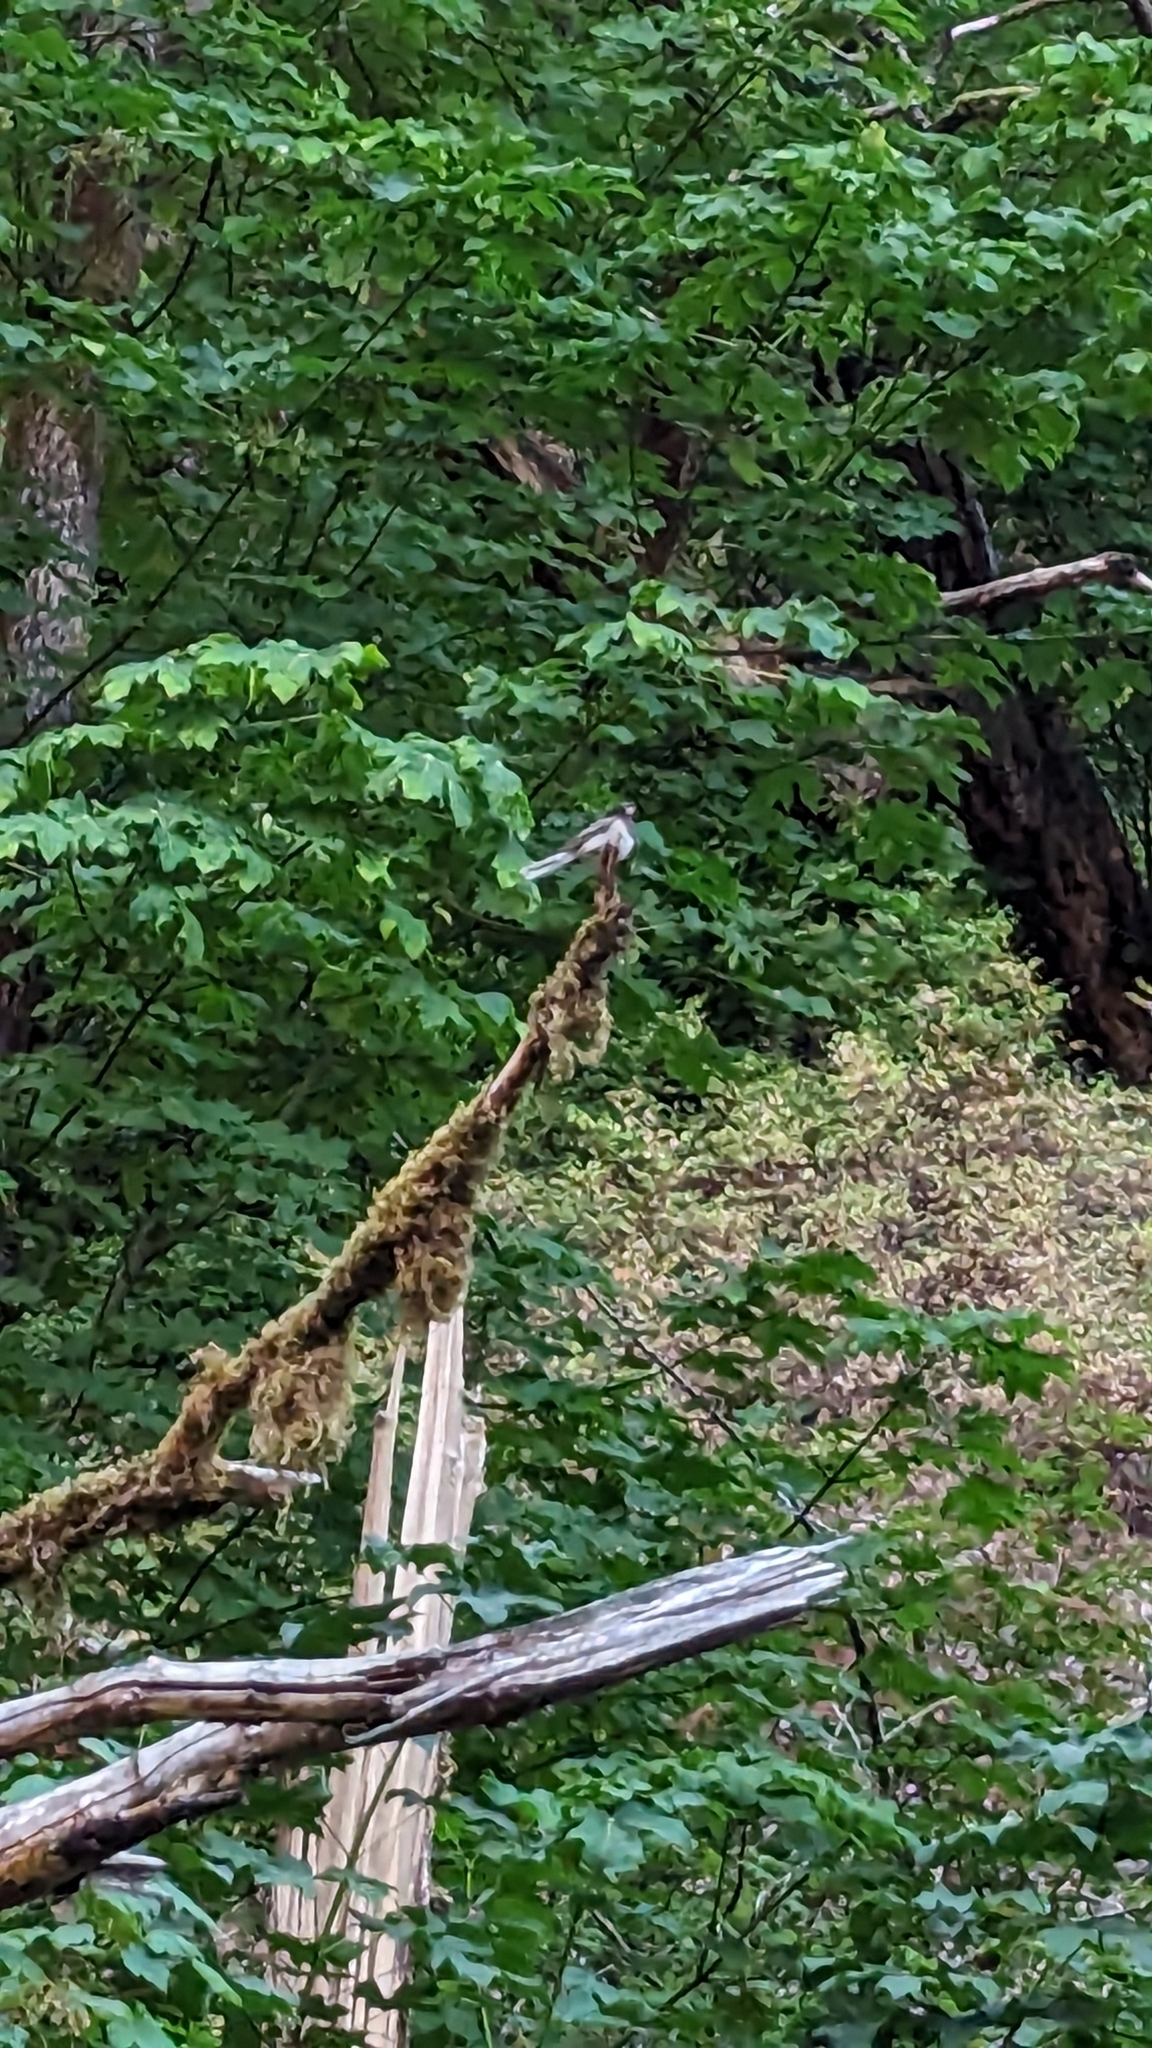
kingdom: Animalia
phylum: Chordata
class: Aves
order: Passeriformes
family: Passerellidae
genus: Junco
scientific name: Junco hyemalis
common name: Dark-eyed junco
